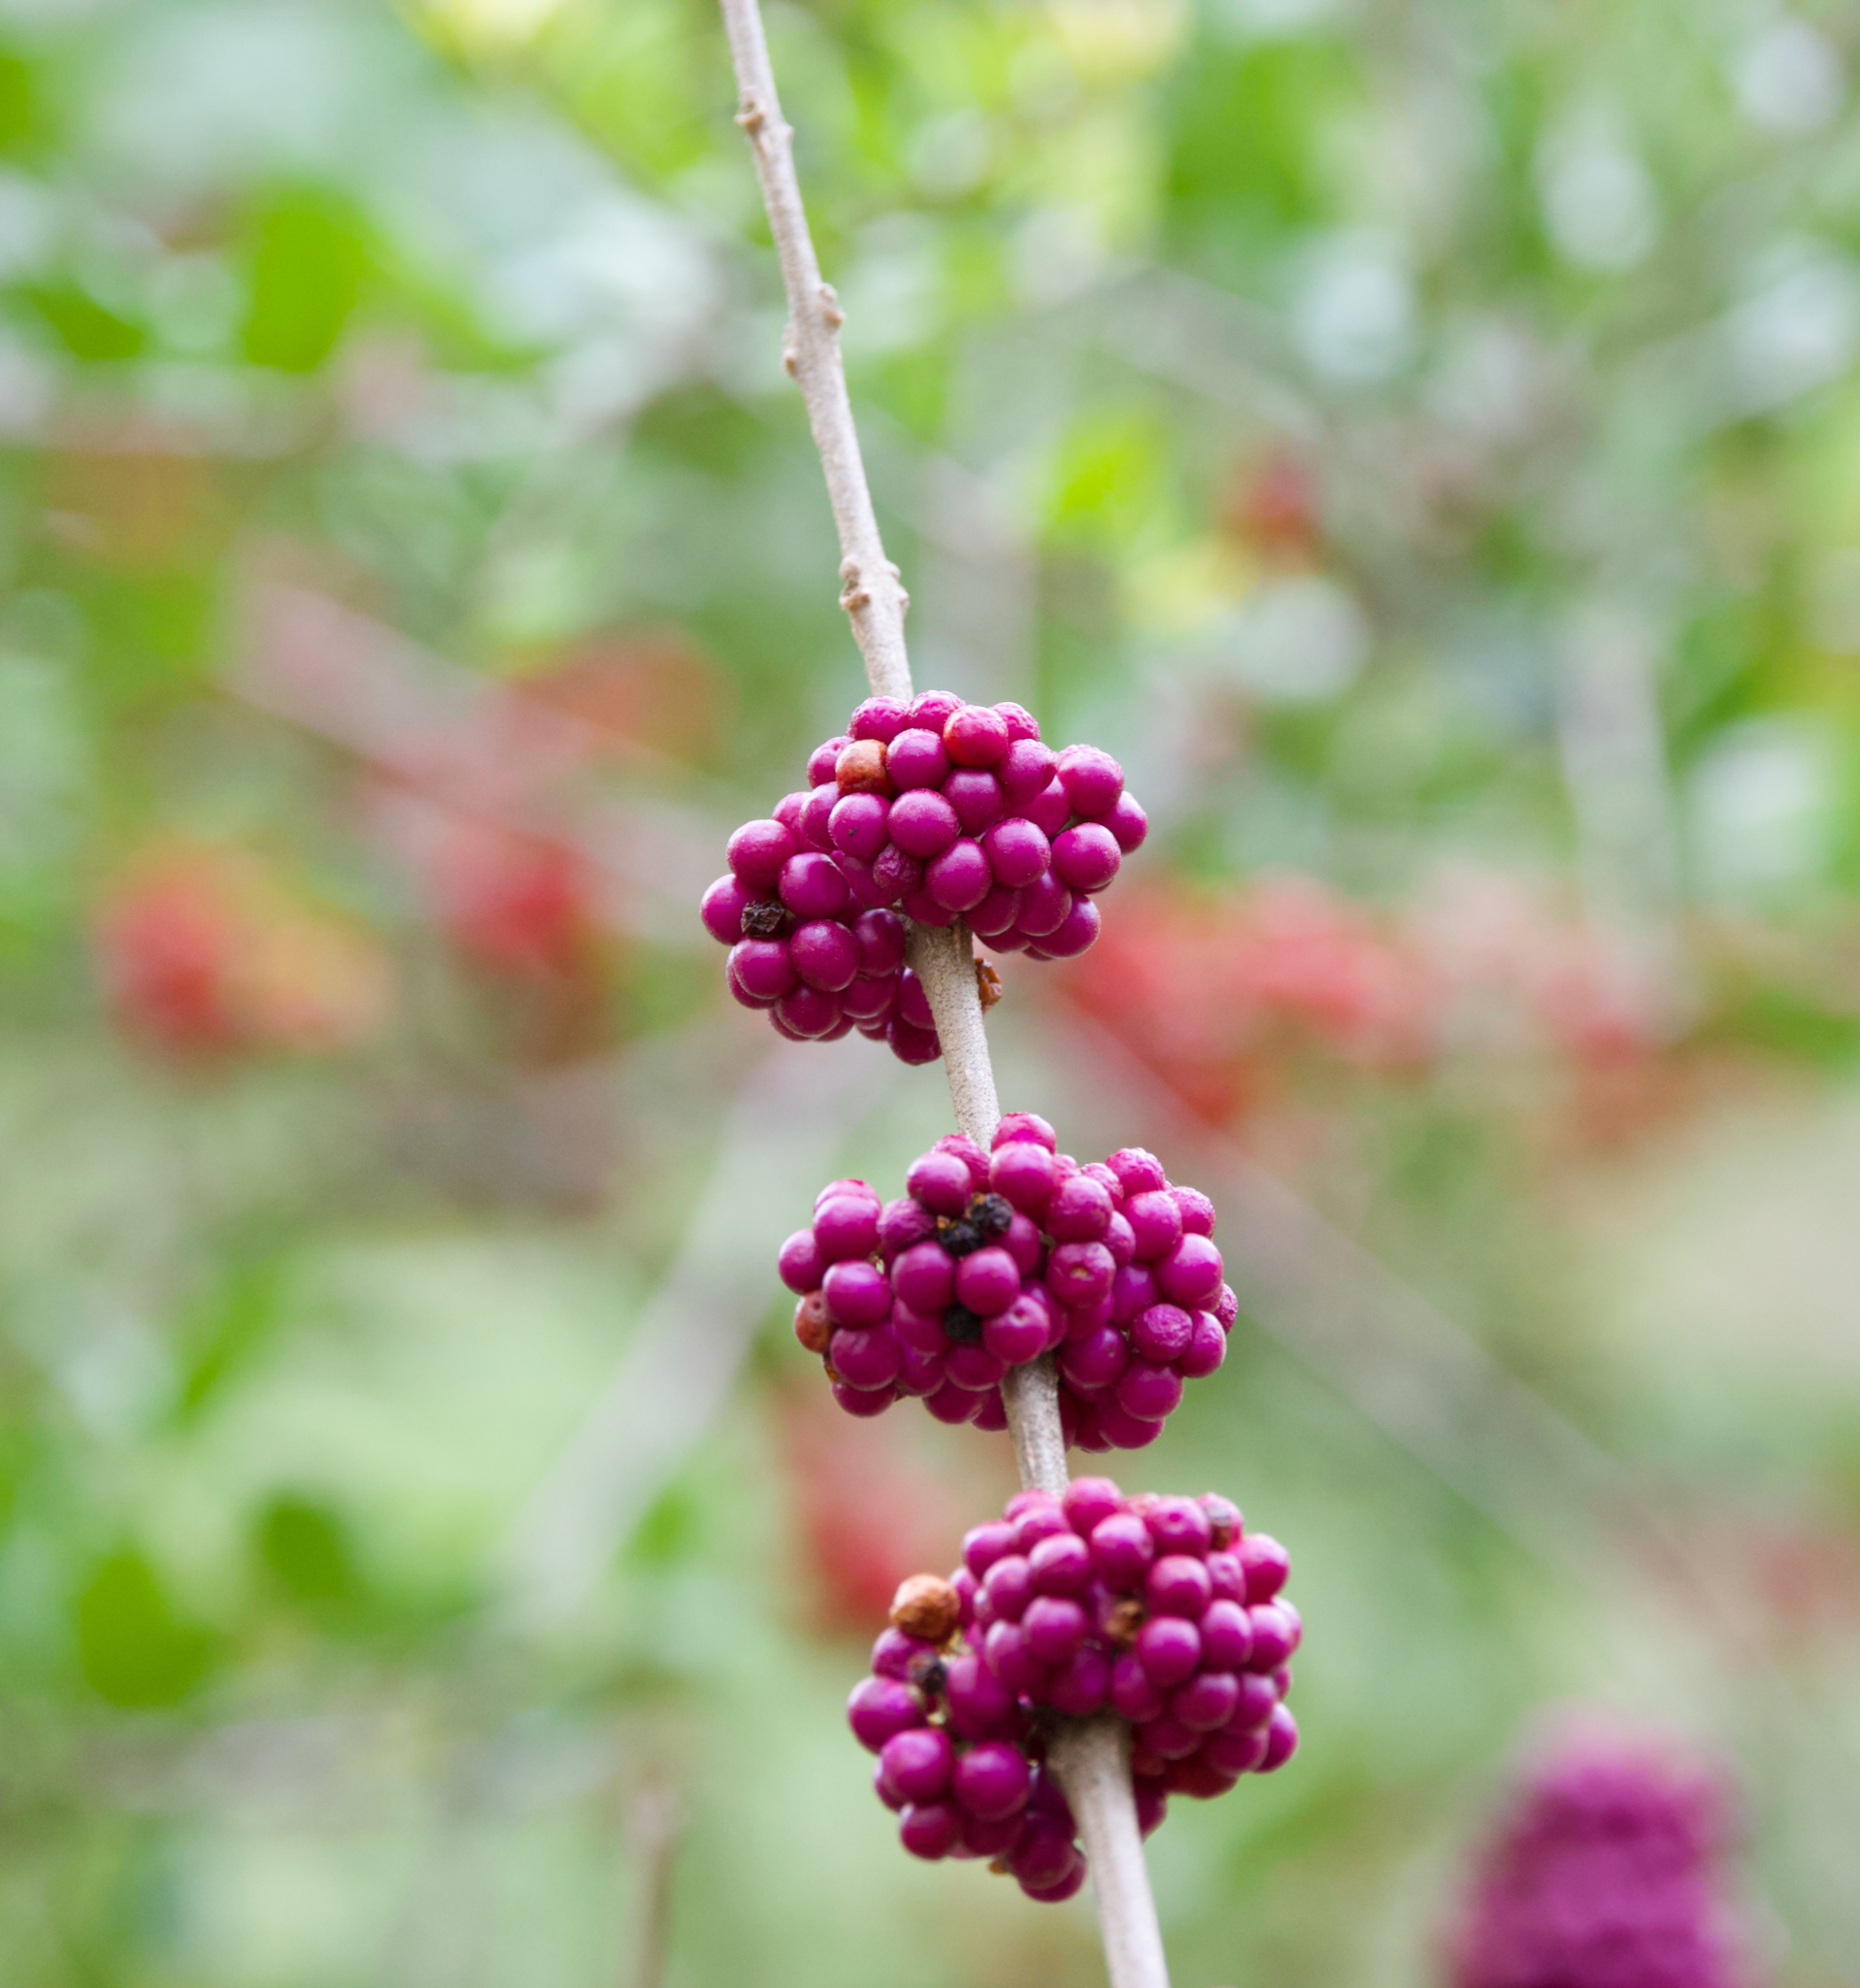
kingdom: Plantae
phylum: Tracheophyta
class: Magnoliopsida
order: Lamiales
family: Lamiaceae
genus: Callicarpa
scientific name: Callicarpa americana
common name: American beautyberry
